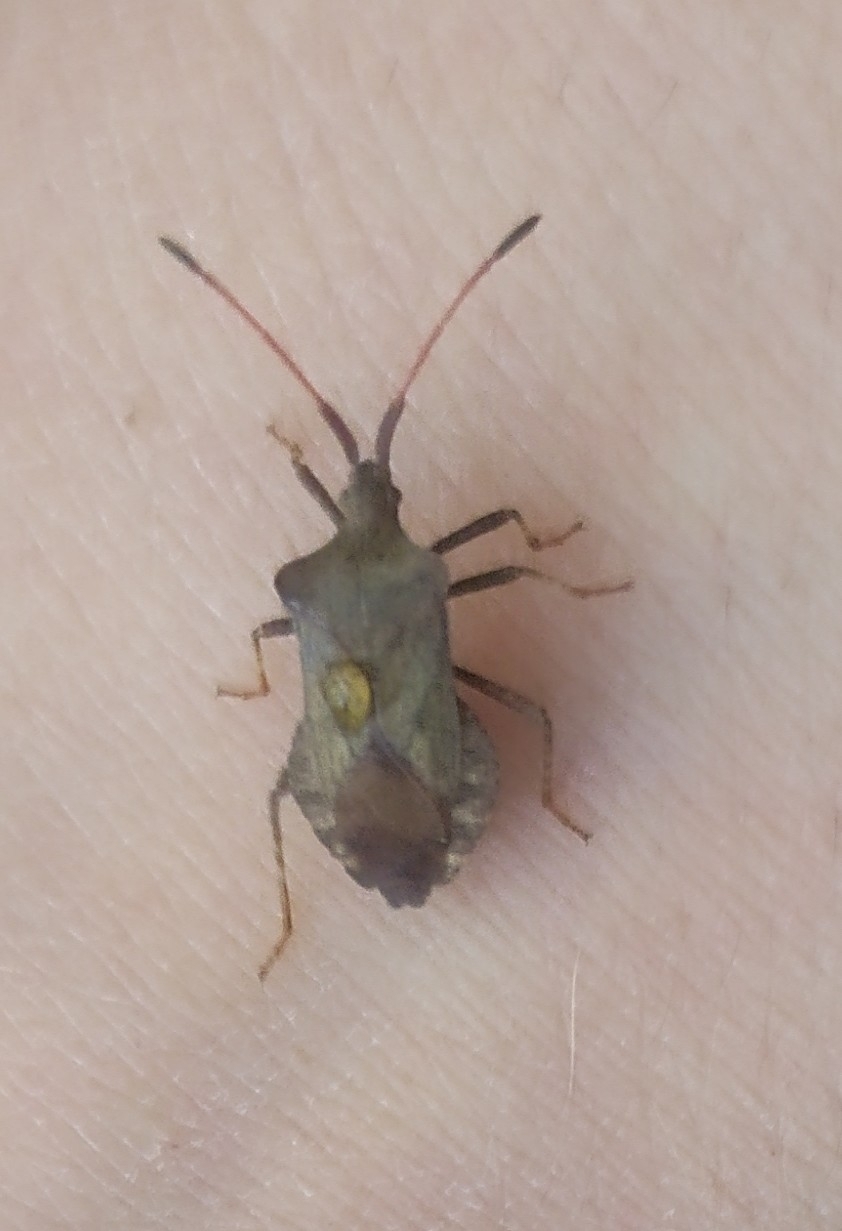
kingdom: Animalia
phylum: Arthropoda
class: Insecta
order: Hemiptera
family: Coreidae
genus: Coreus
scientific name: Coreus marginatus
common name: Dock bug
